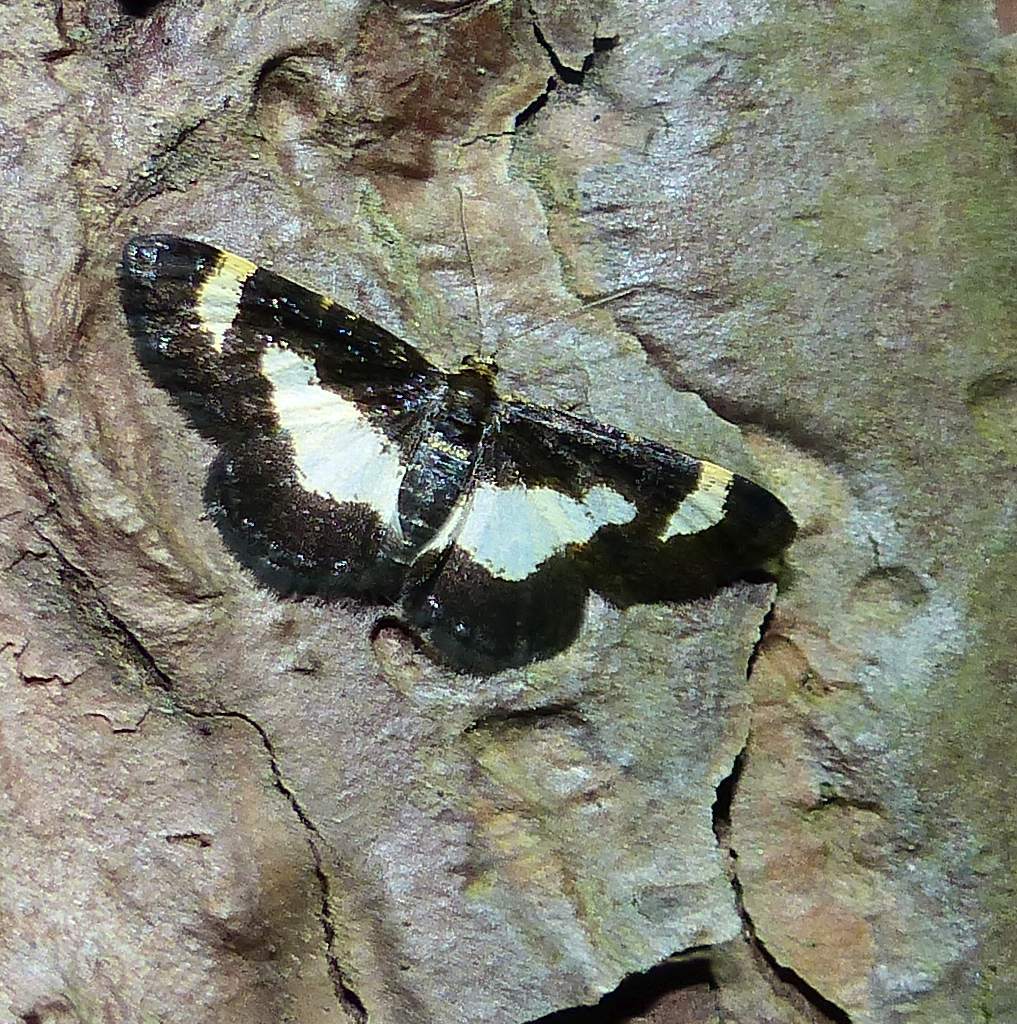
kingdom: Animalia
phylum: Arthropoda
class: Insecta
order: Lepidoptera
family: Geometridae
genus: Heliomata
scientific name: Heliomata cycladata
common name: Common spring moth
